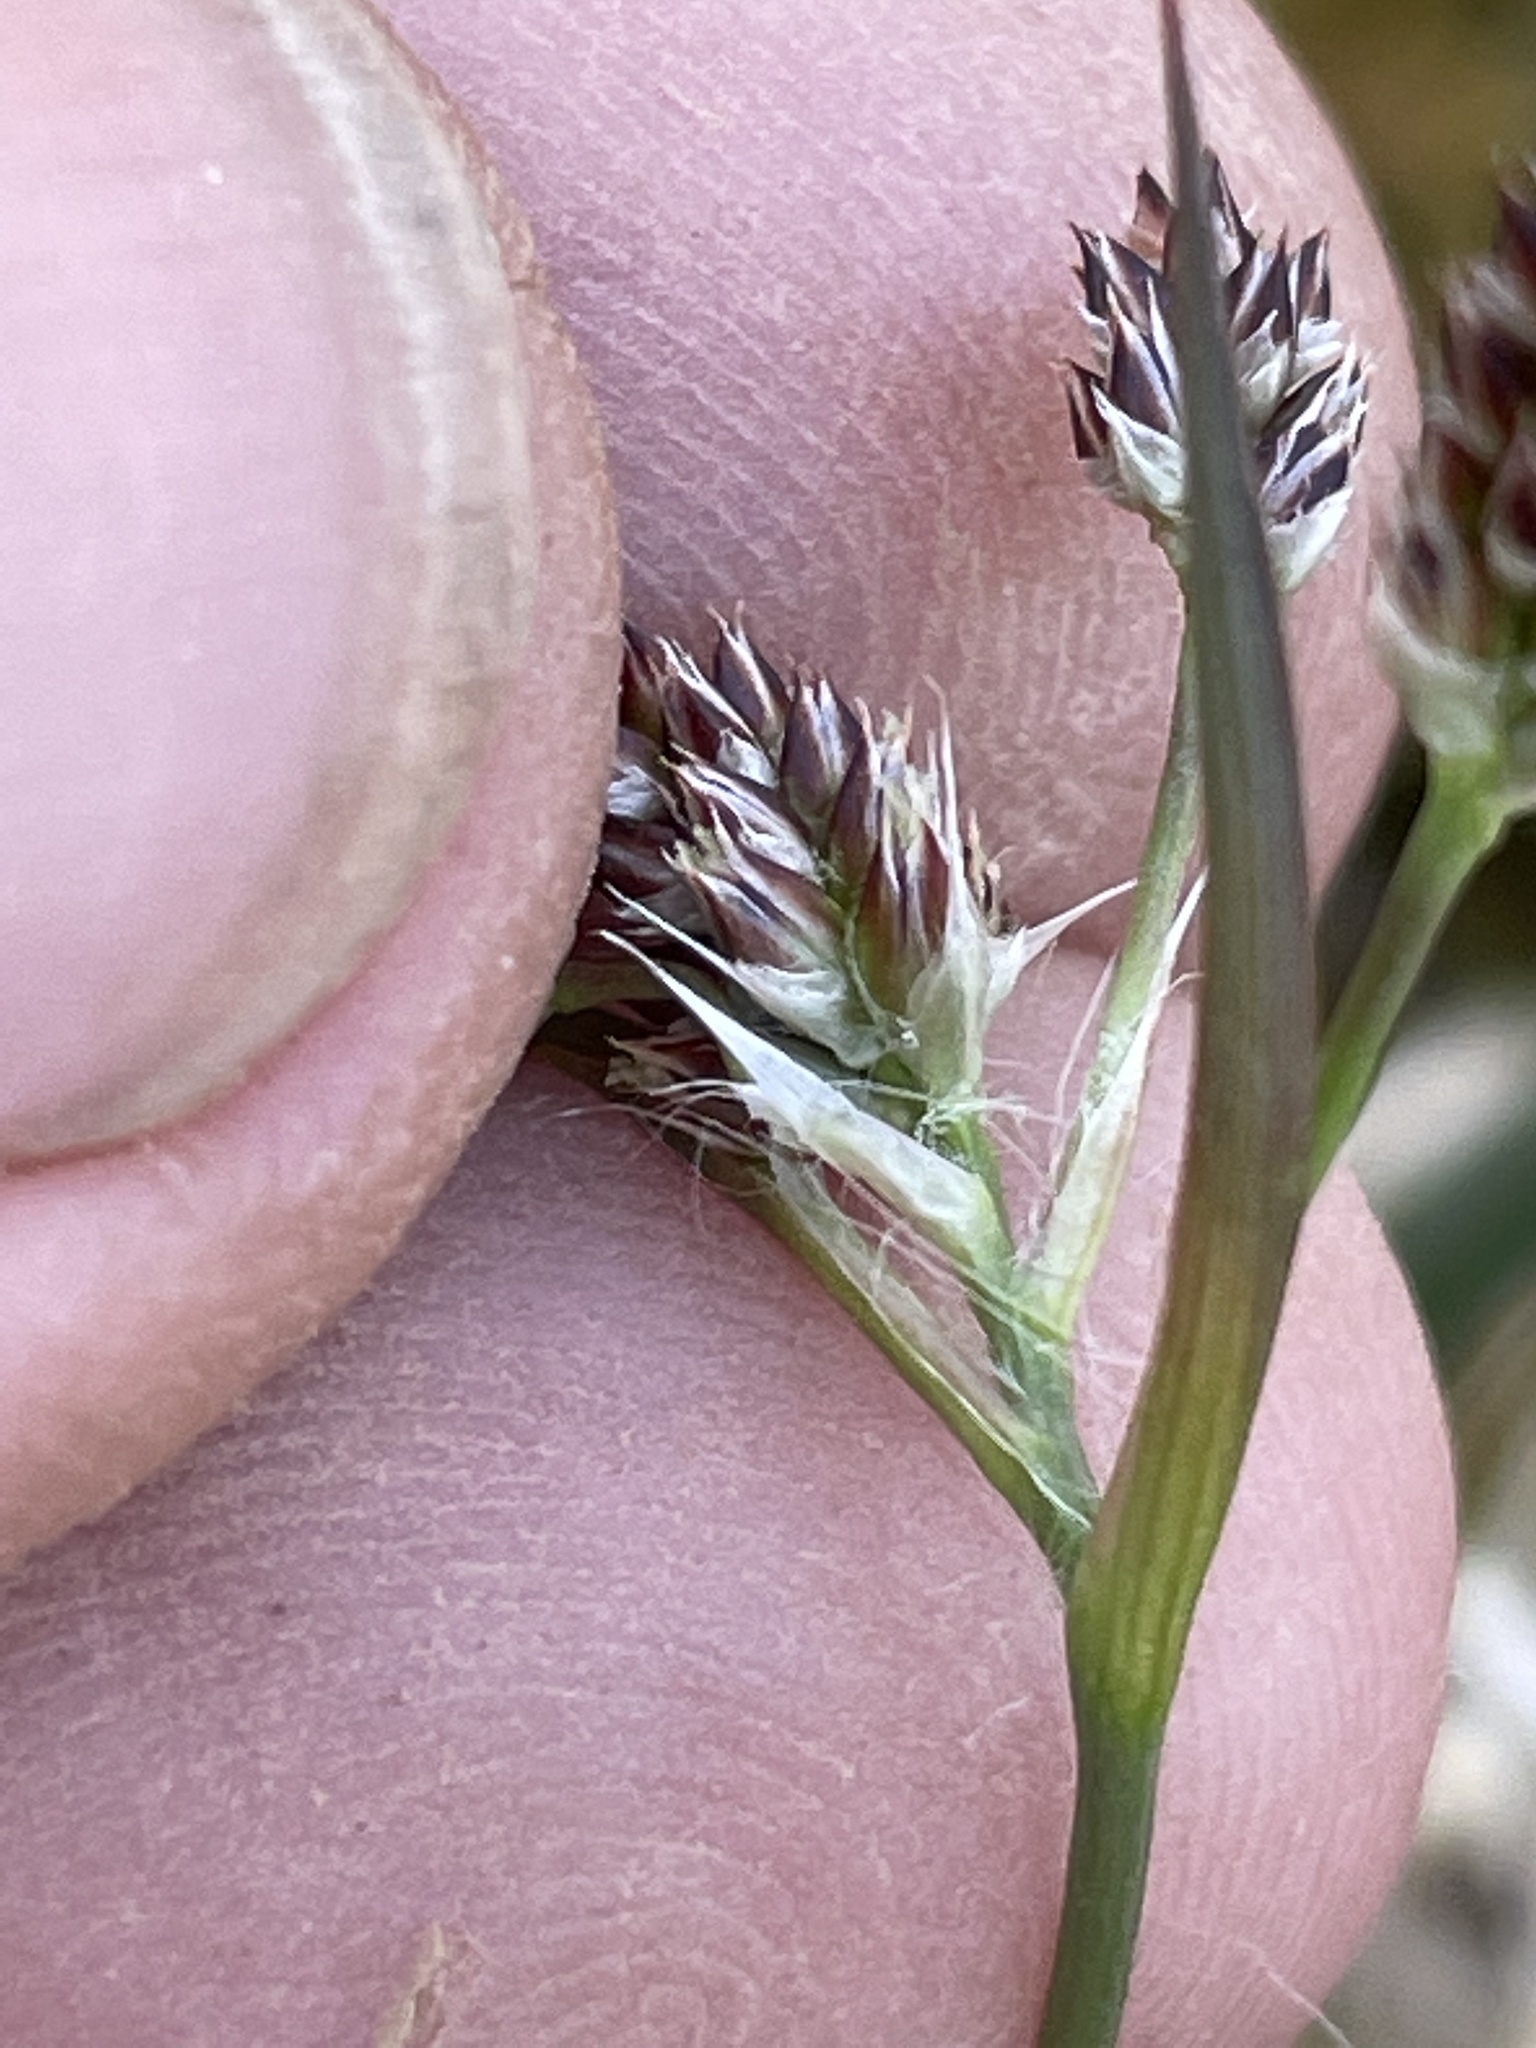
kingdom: Plantae
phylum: Tracheophyta
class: Liliopsida
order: Poales
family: Juncaceae
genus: Luzula
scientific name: Luzula echinata
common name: Hedgehog woodrush
